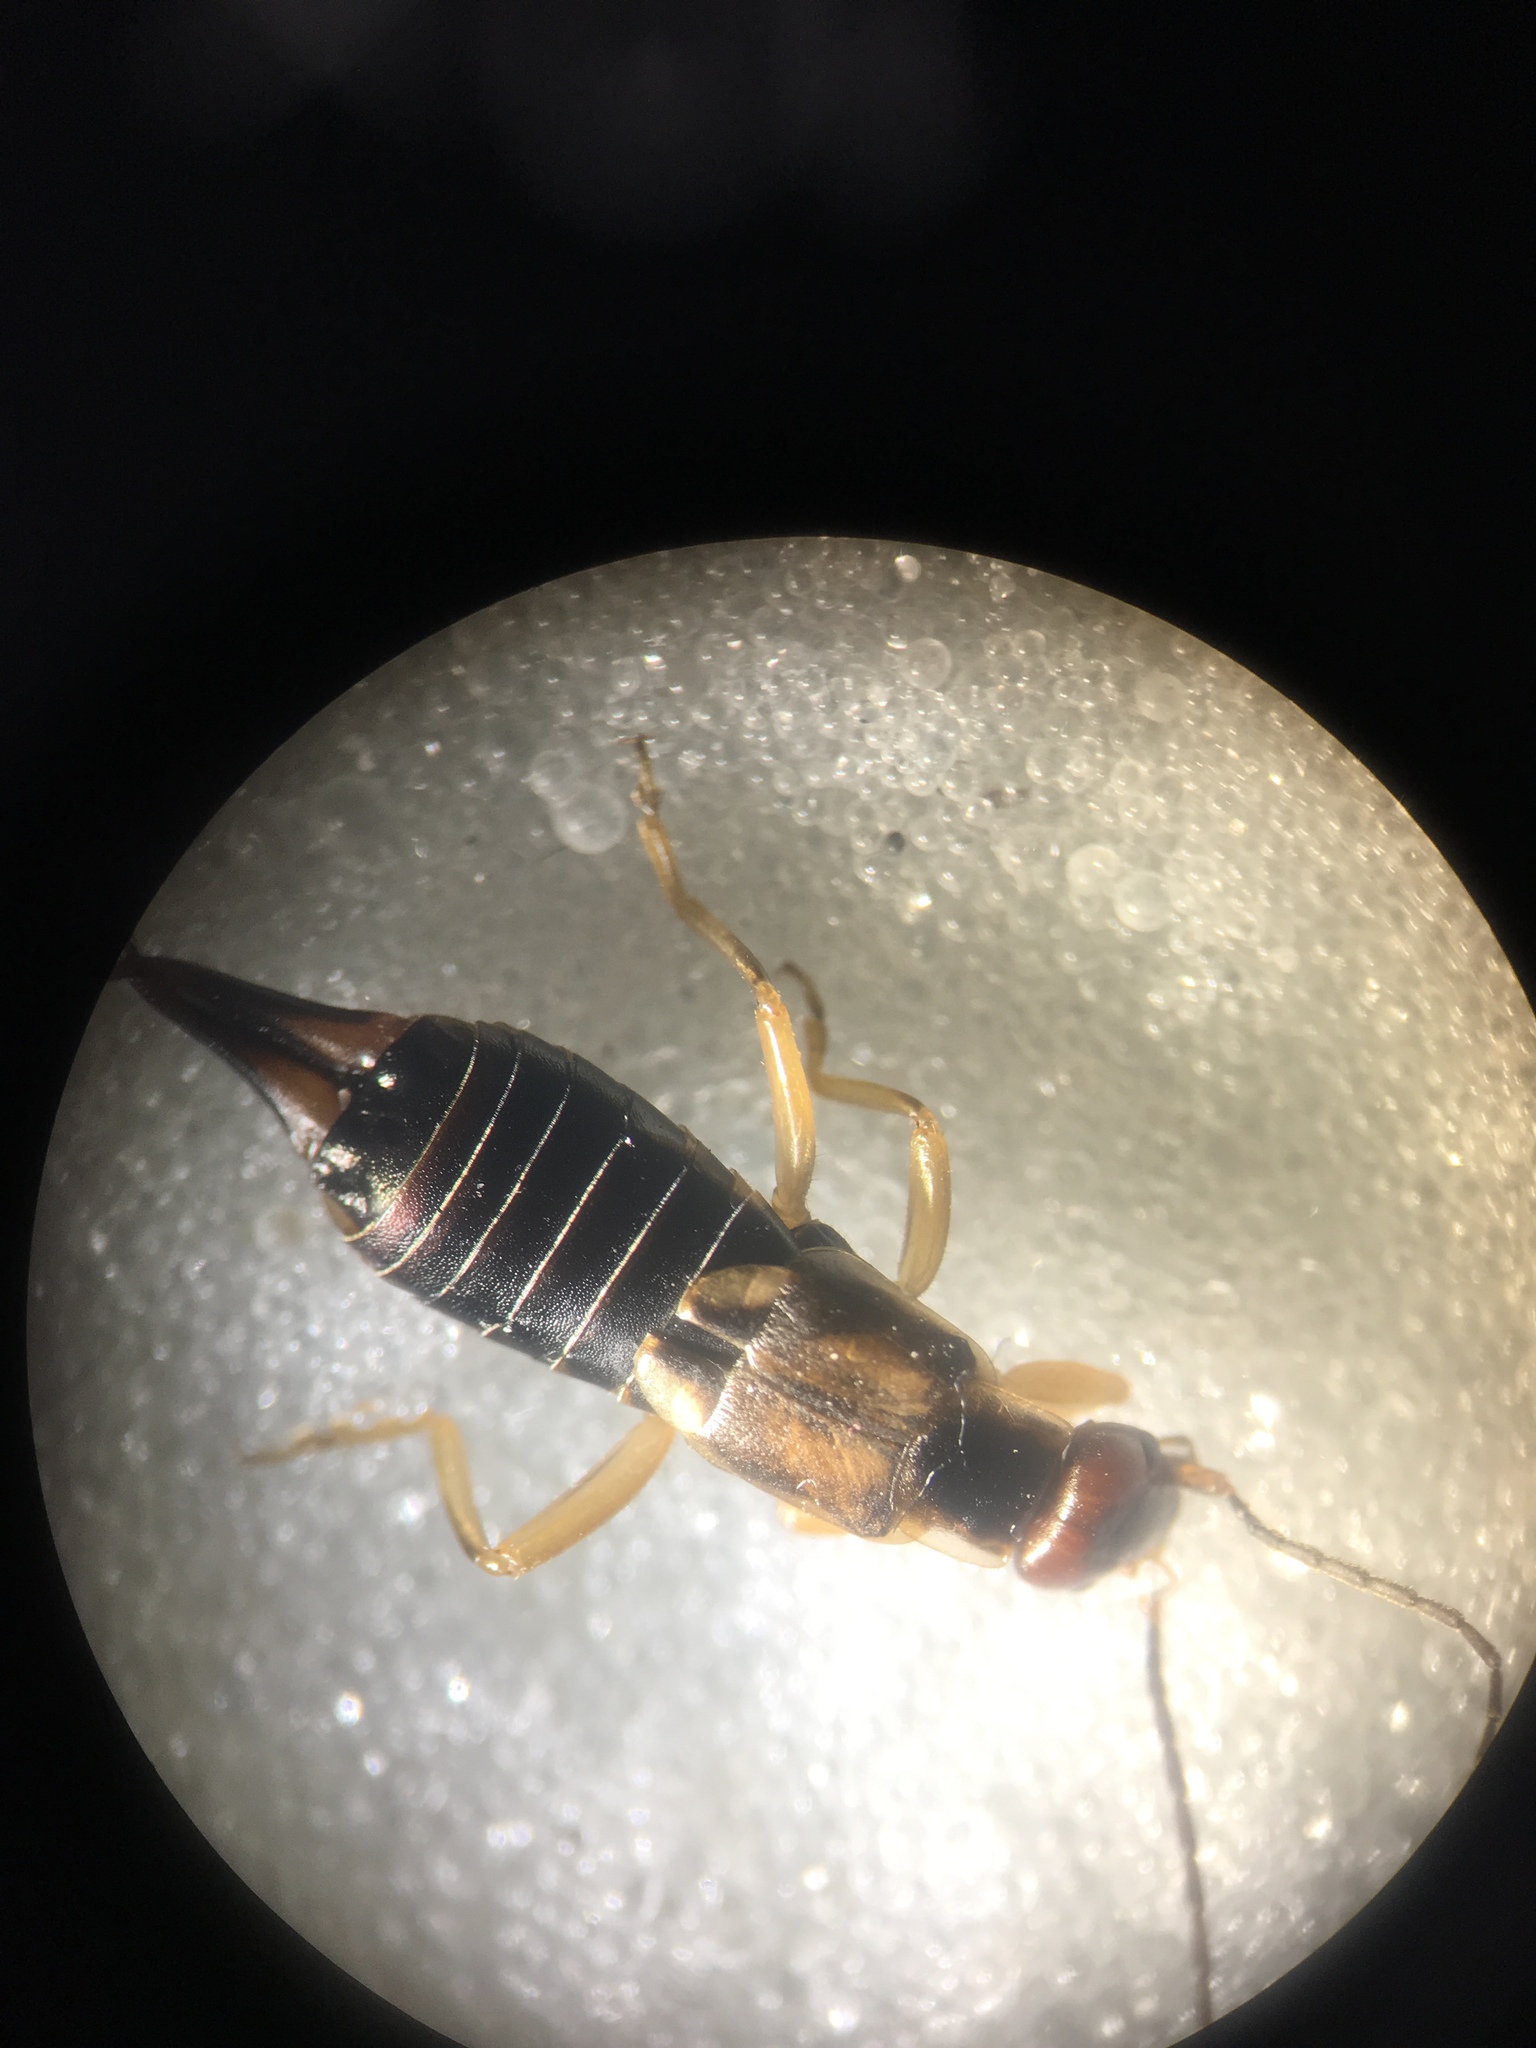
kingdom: Animalia
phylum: Arthropoda
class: Insecta
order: Dermaptera
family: Forficulidae
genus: Forficula
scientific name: Forficula
